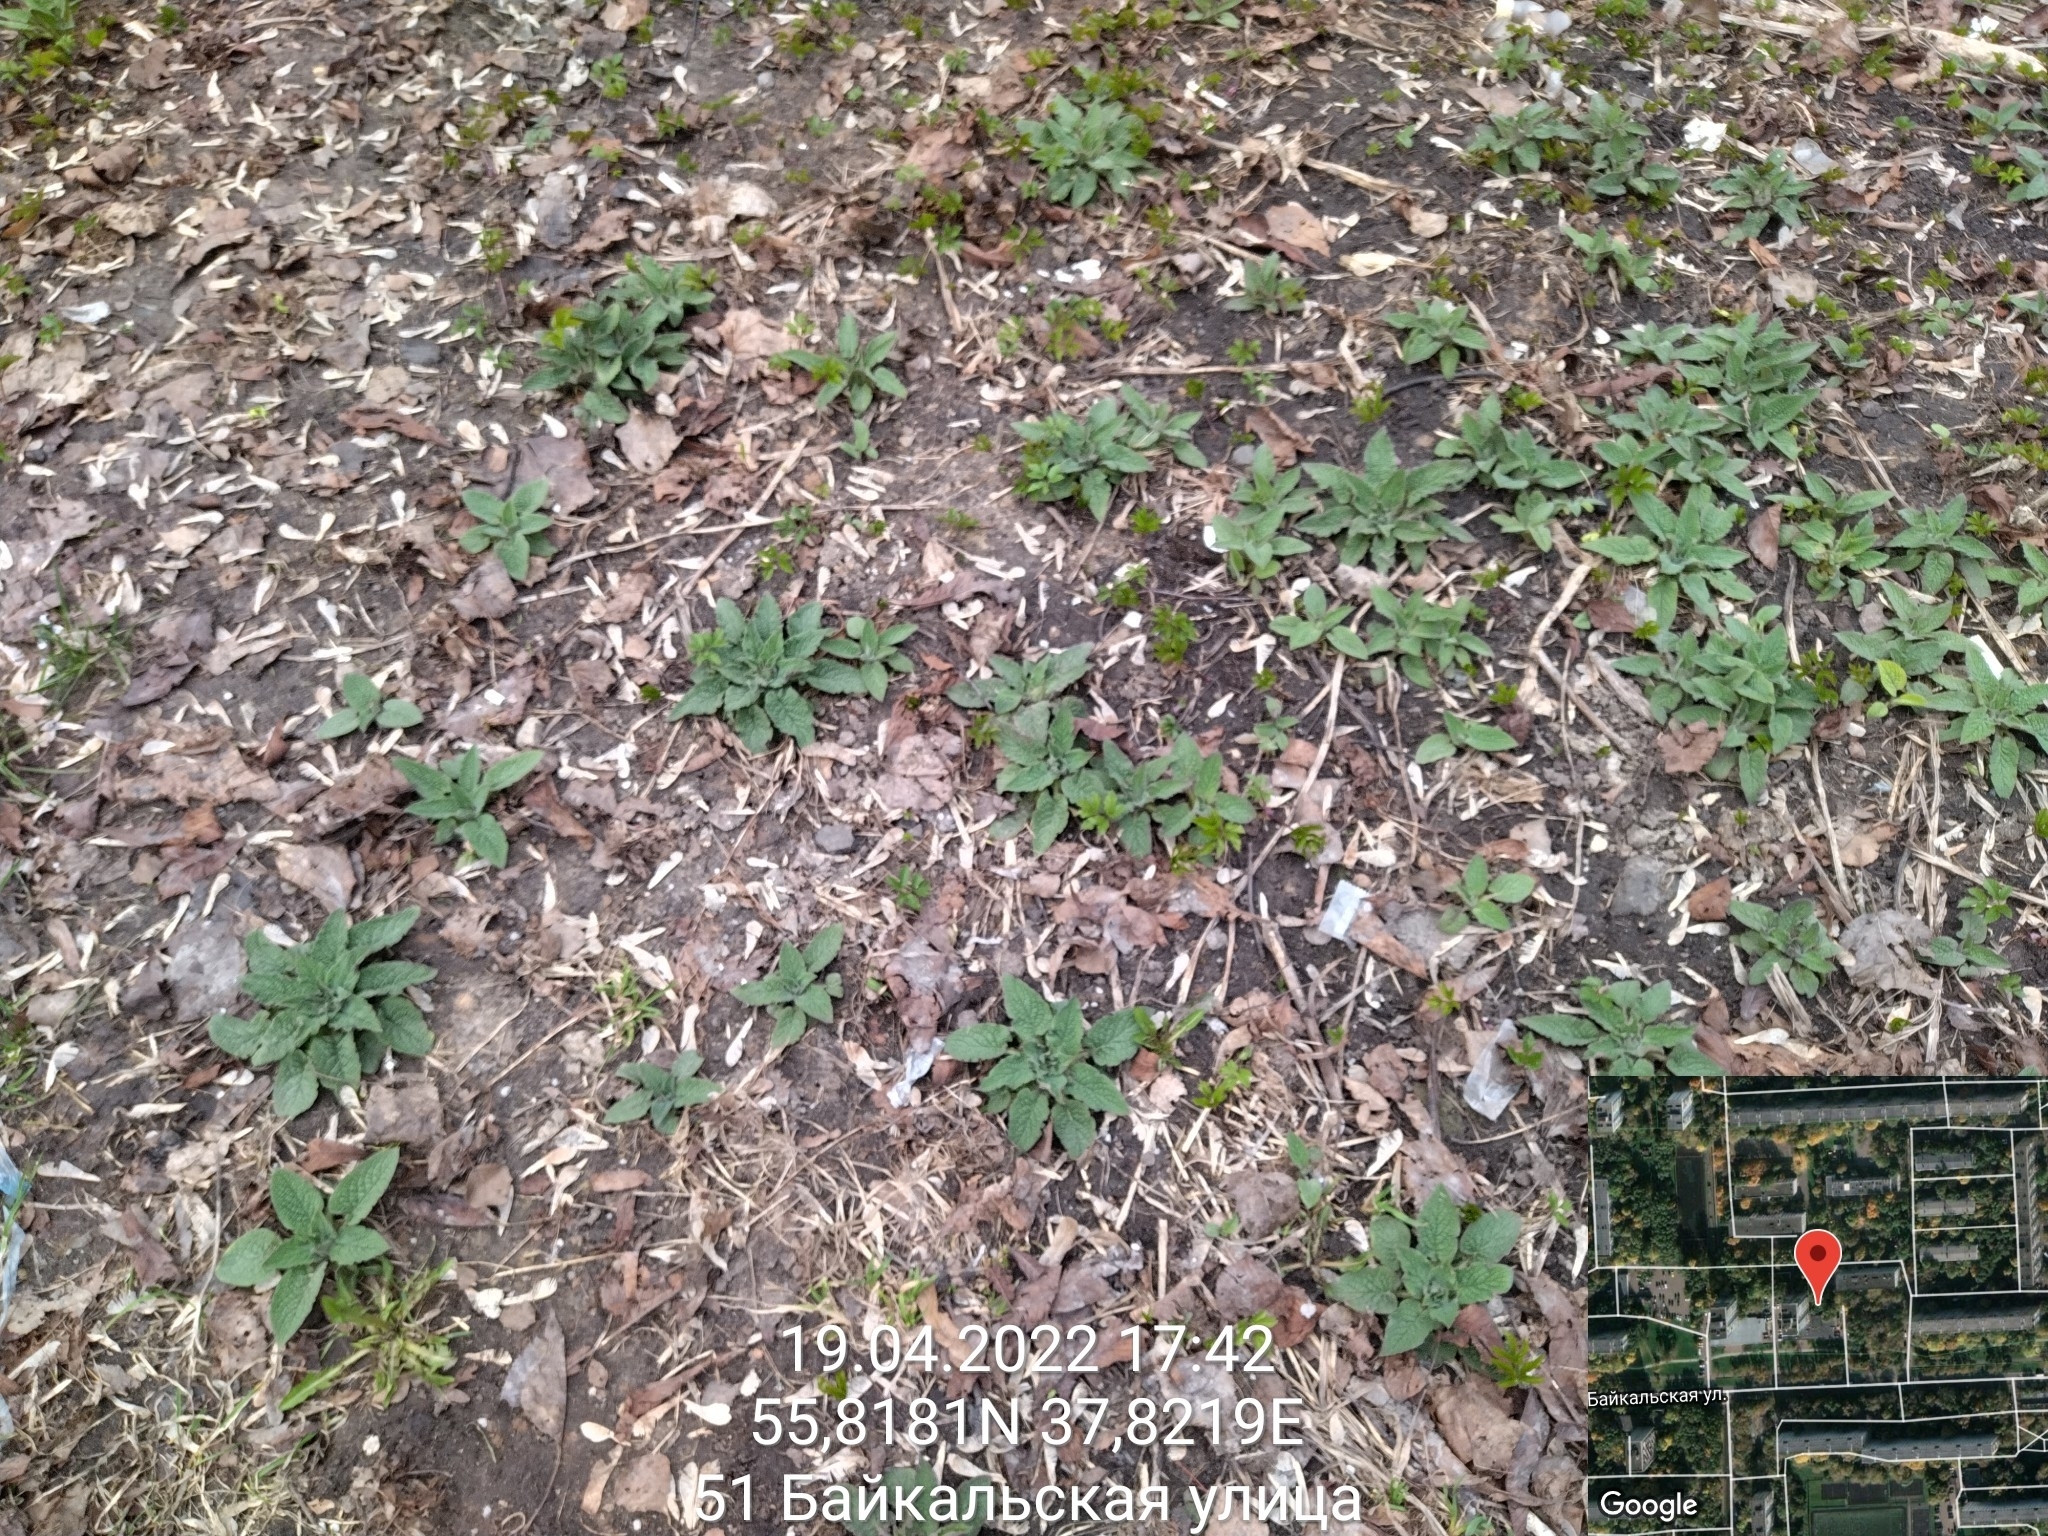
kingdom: Plantae
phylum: Tracheophyta
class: Magnoliopsida
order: Boraginales
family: Boraginaceae
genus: Symphytum
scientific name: Symphytum
